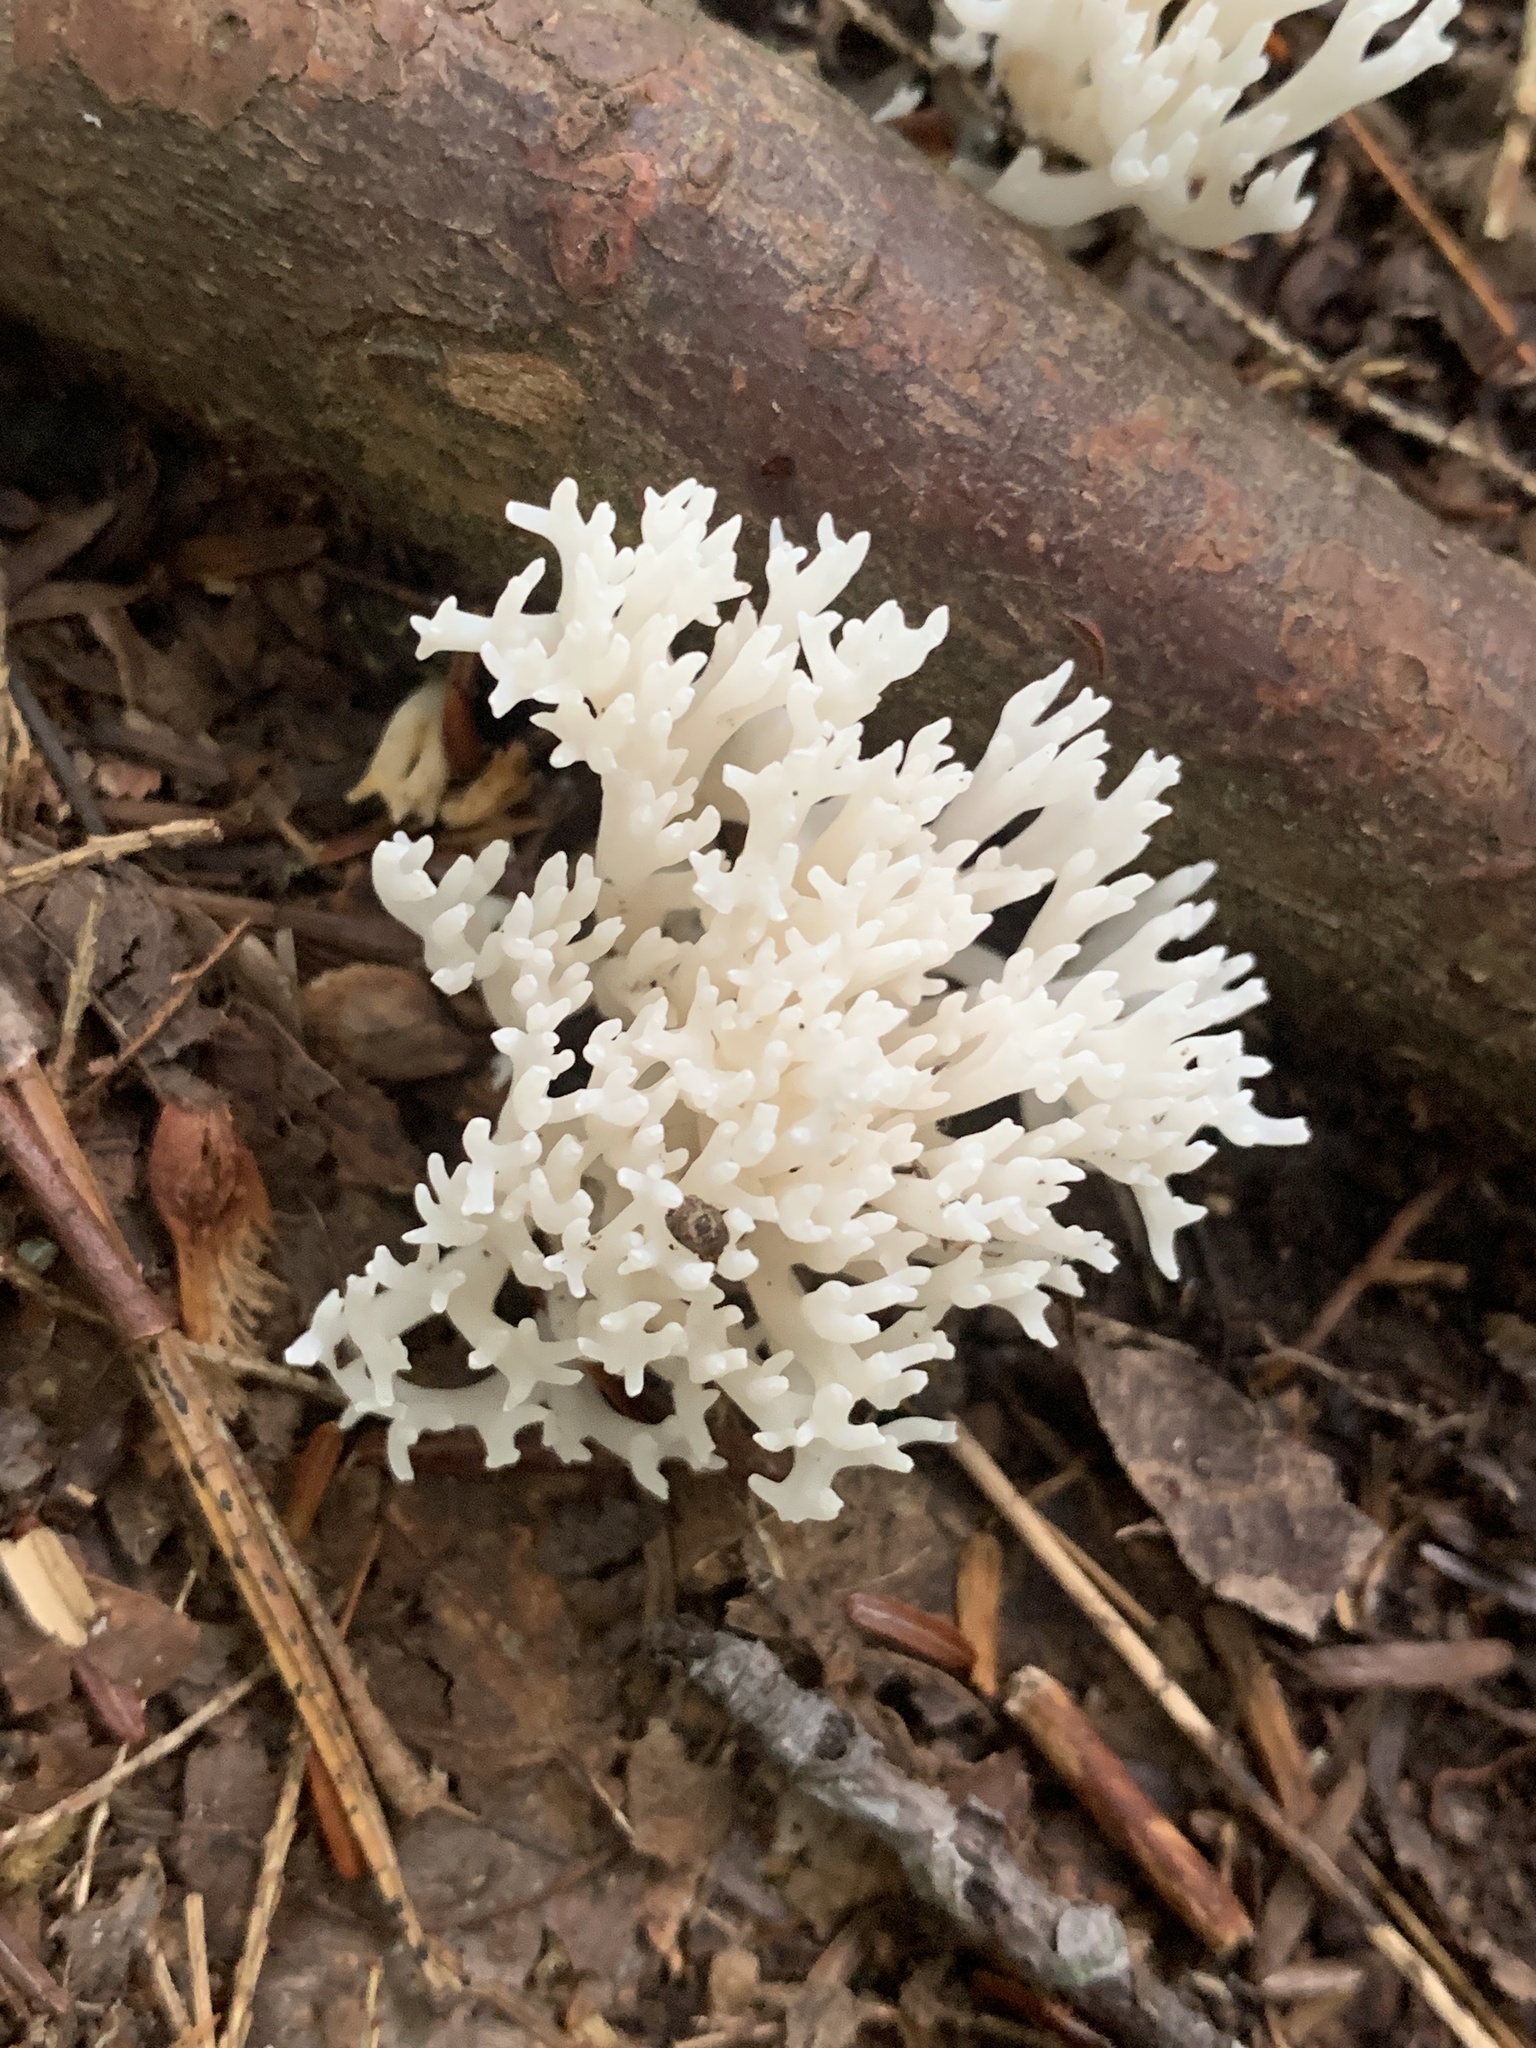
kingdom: Fungi
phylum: Basidiomycota
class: Agaricomycetes
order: Agaricales
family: Clavariaceae
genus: Ramariopsis
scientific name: Ramariopsis kunzei
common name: Ivory coral
